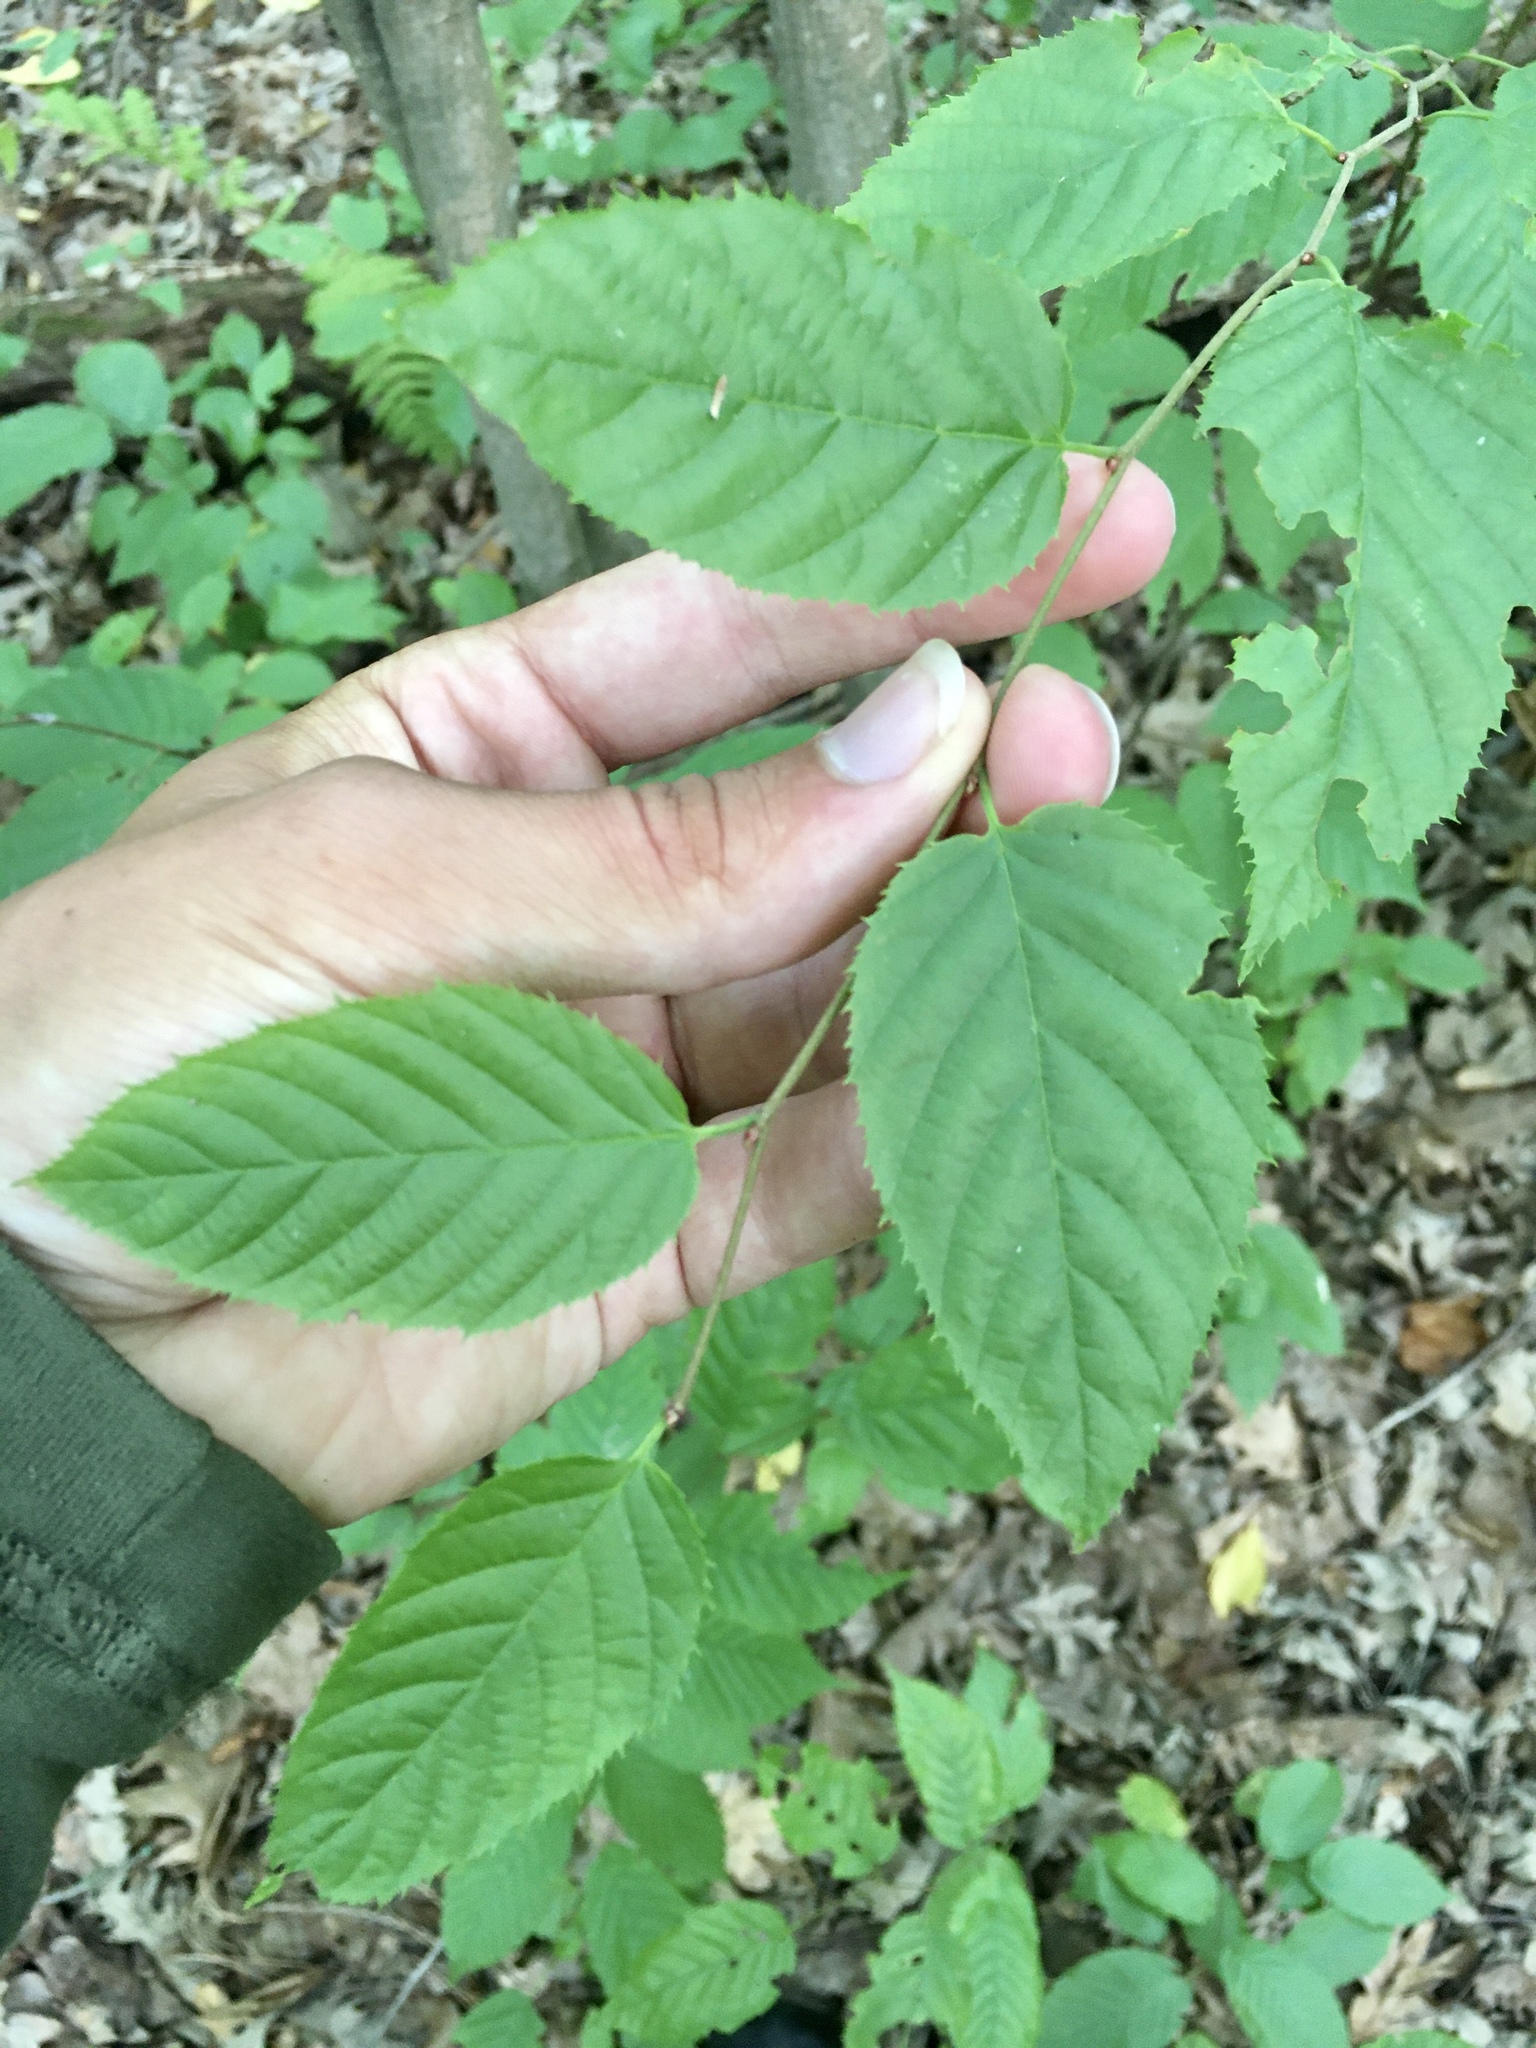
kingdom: Plantae
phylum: Tracheophyta
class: Magnoliopsida
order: Fagales
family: Betulaceae
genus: Carpinus
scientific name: Carpinus caroliniana
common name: American hornbeam
